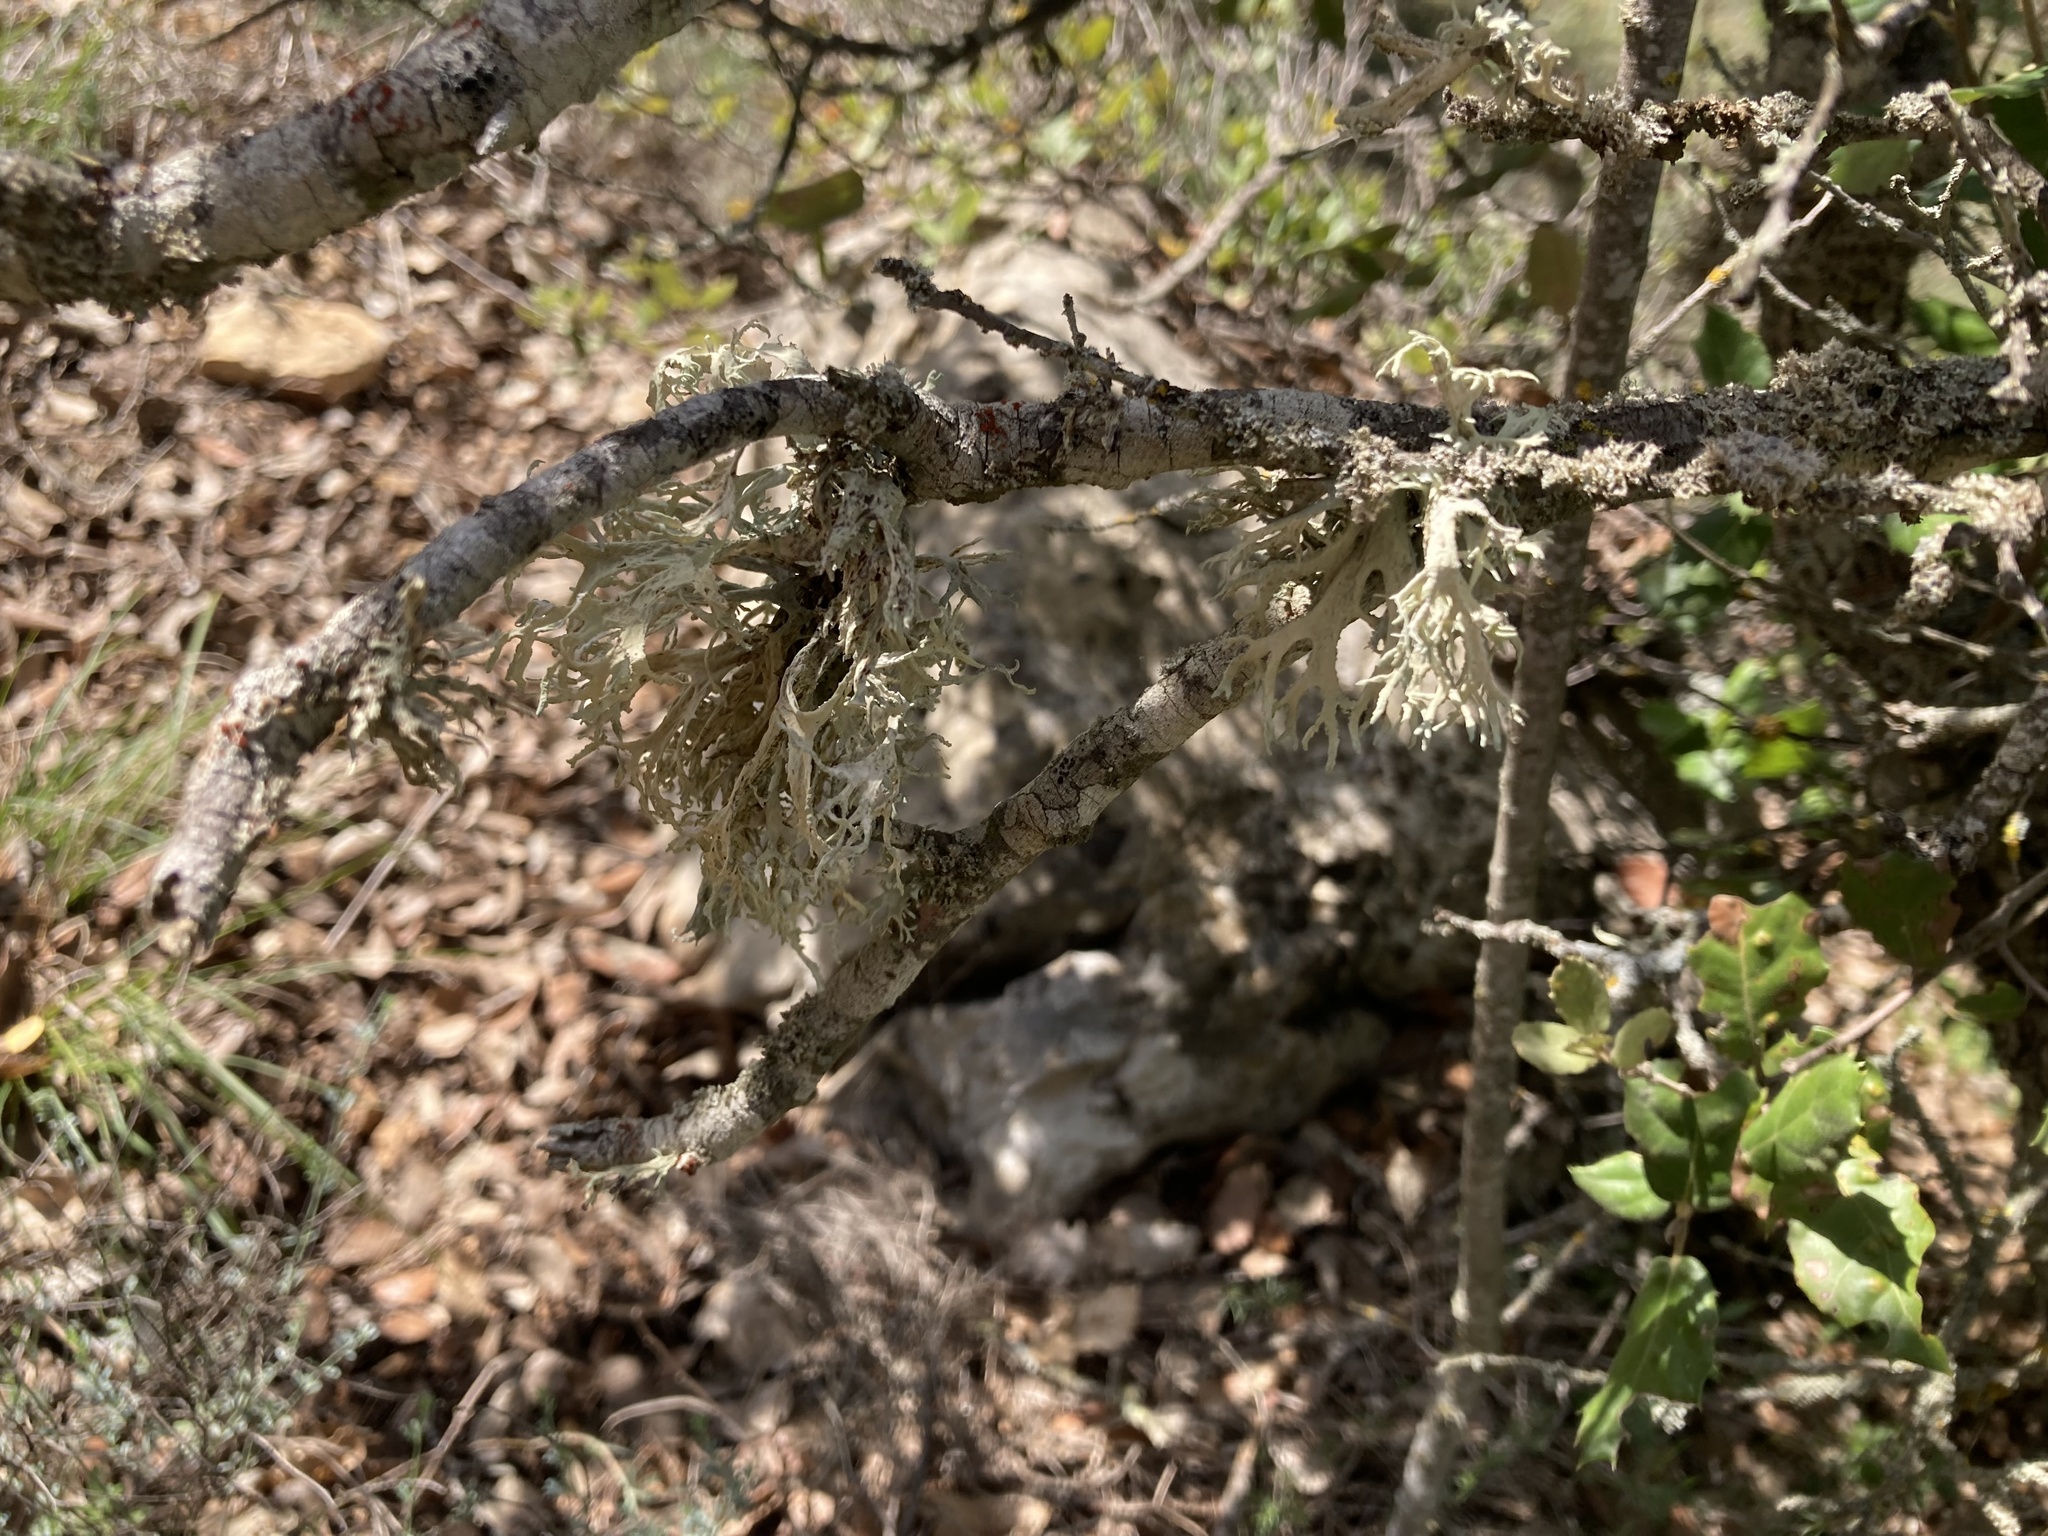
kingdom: Fungi
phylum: Ascomycota
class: Lecanoromycetes
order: Lecanorales
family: Parmeliaceae
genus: Evernia
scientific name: Evernia prunastri
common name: Oak moss
